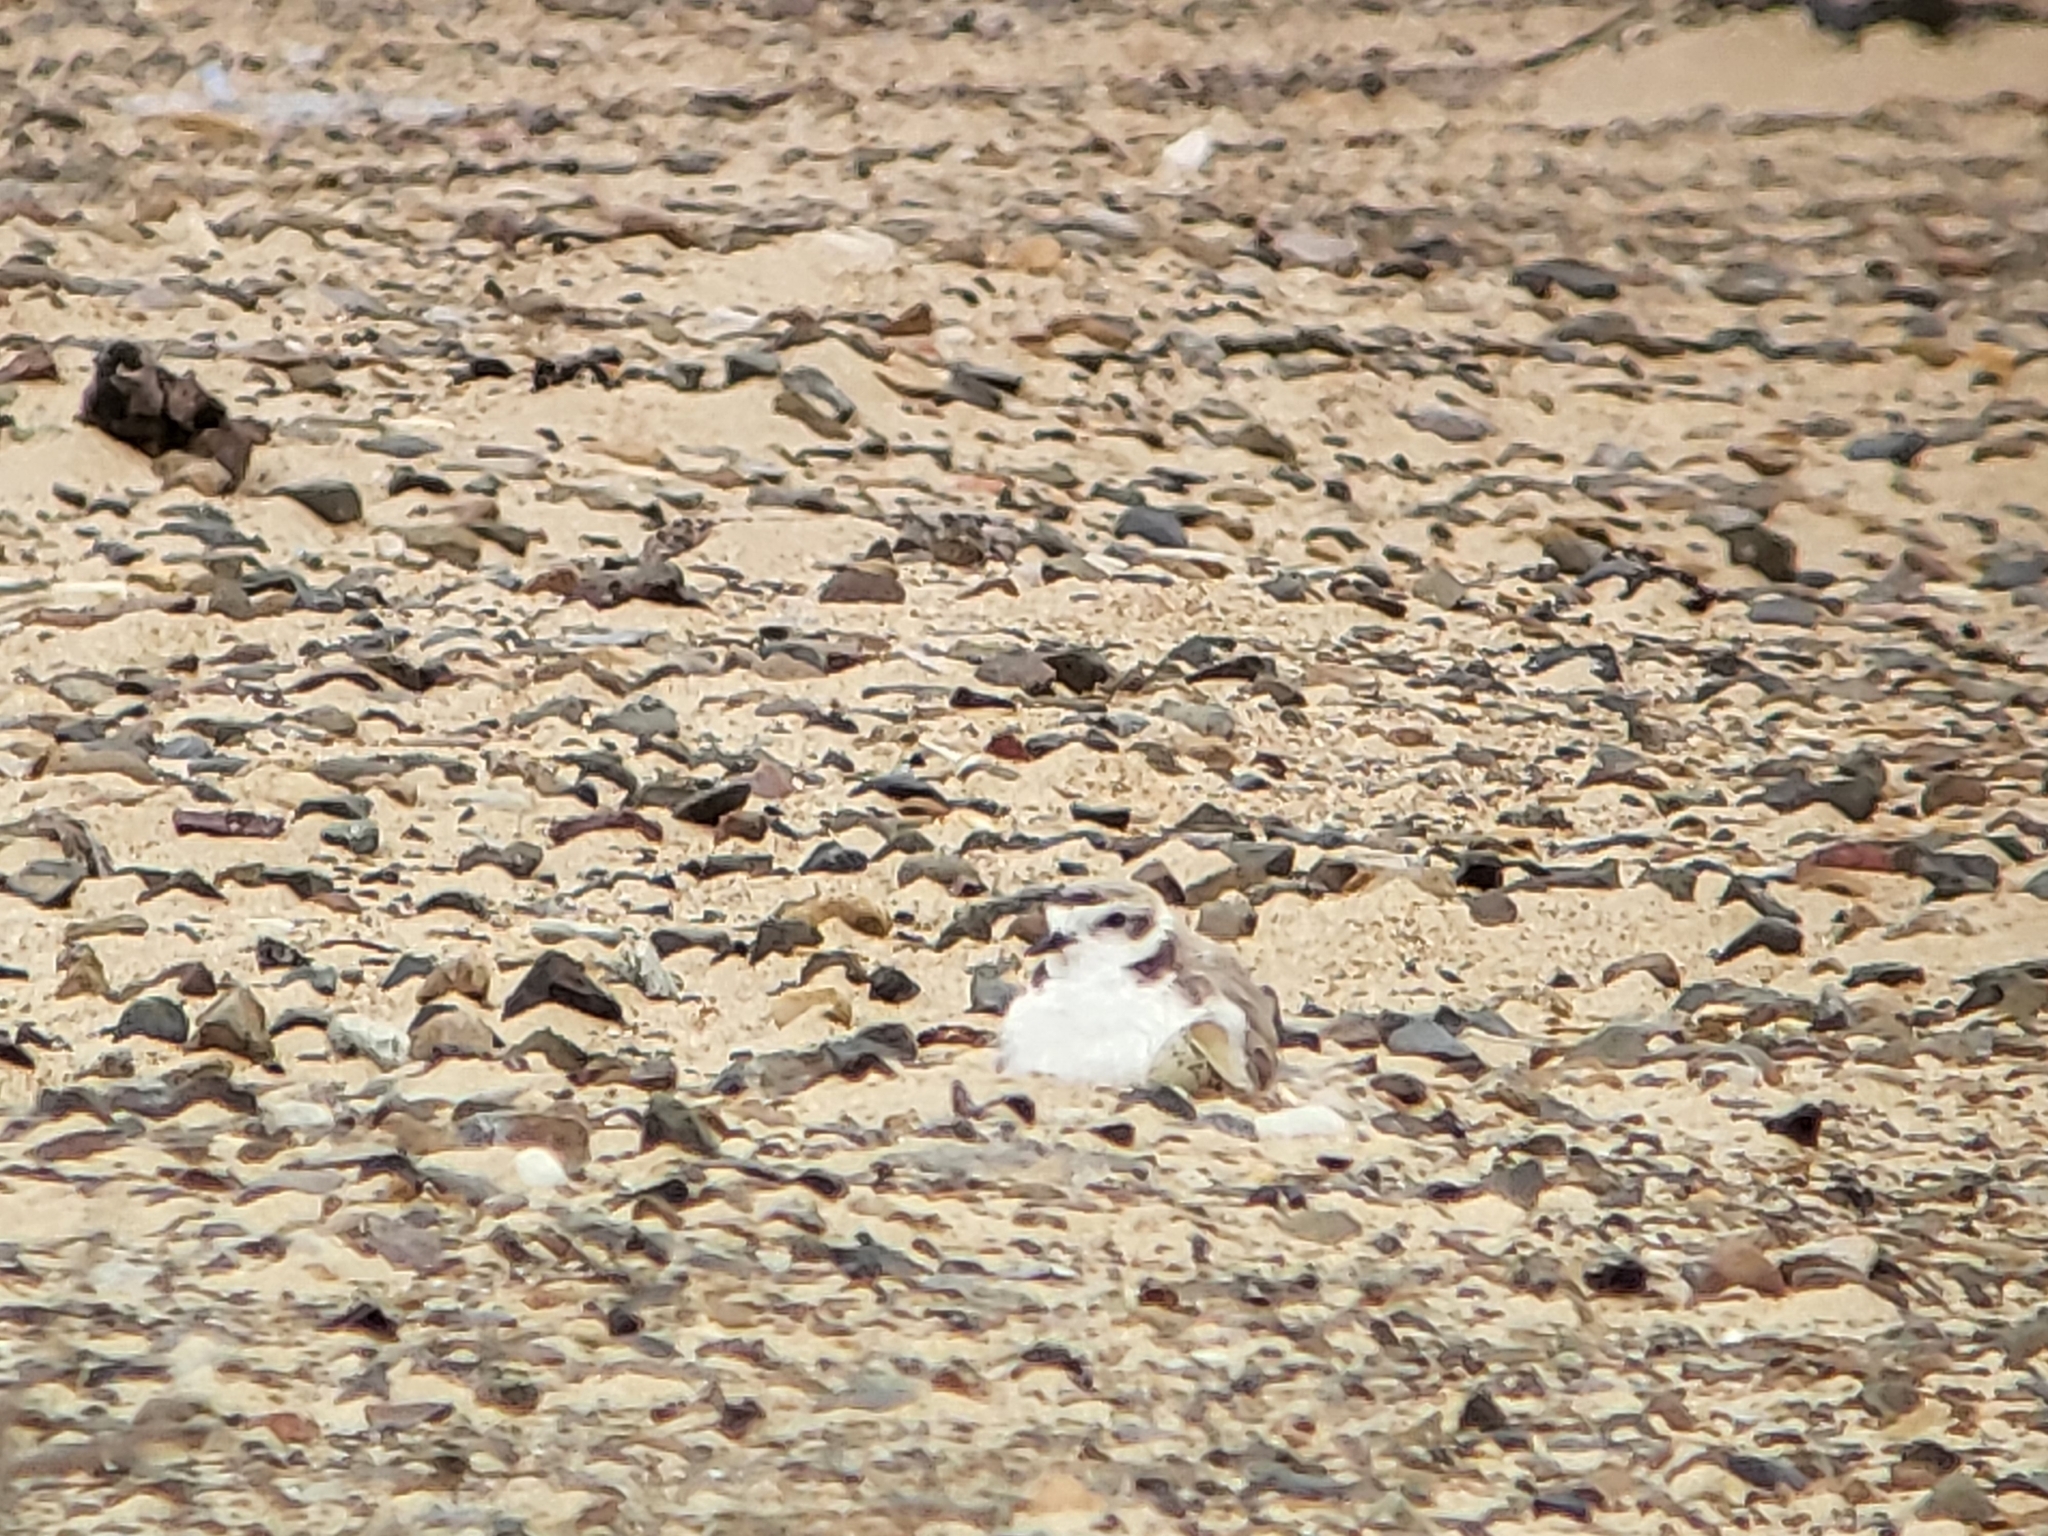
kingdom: Animalia
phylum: Chordata
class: Aves
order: Charadriiformes
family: Charadriidae
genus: Anarhynchus
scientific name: Anarhynchus
